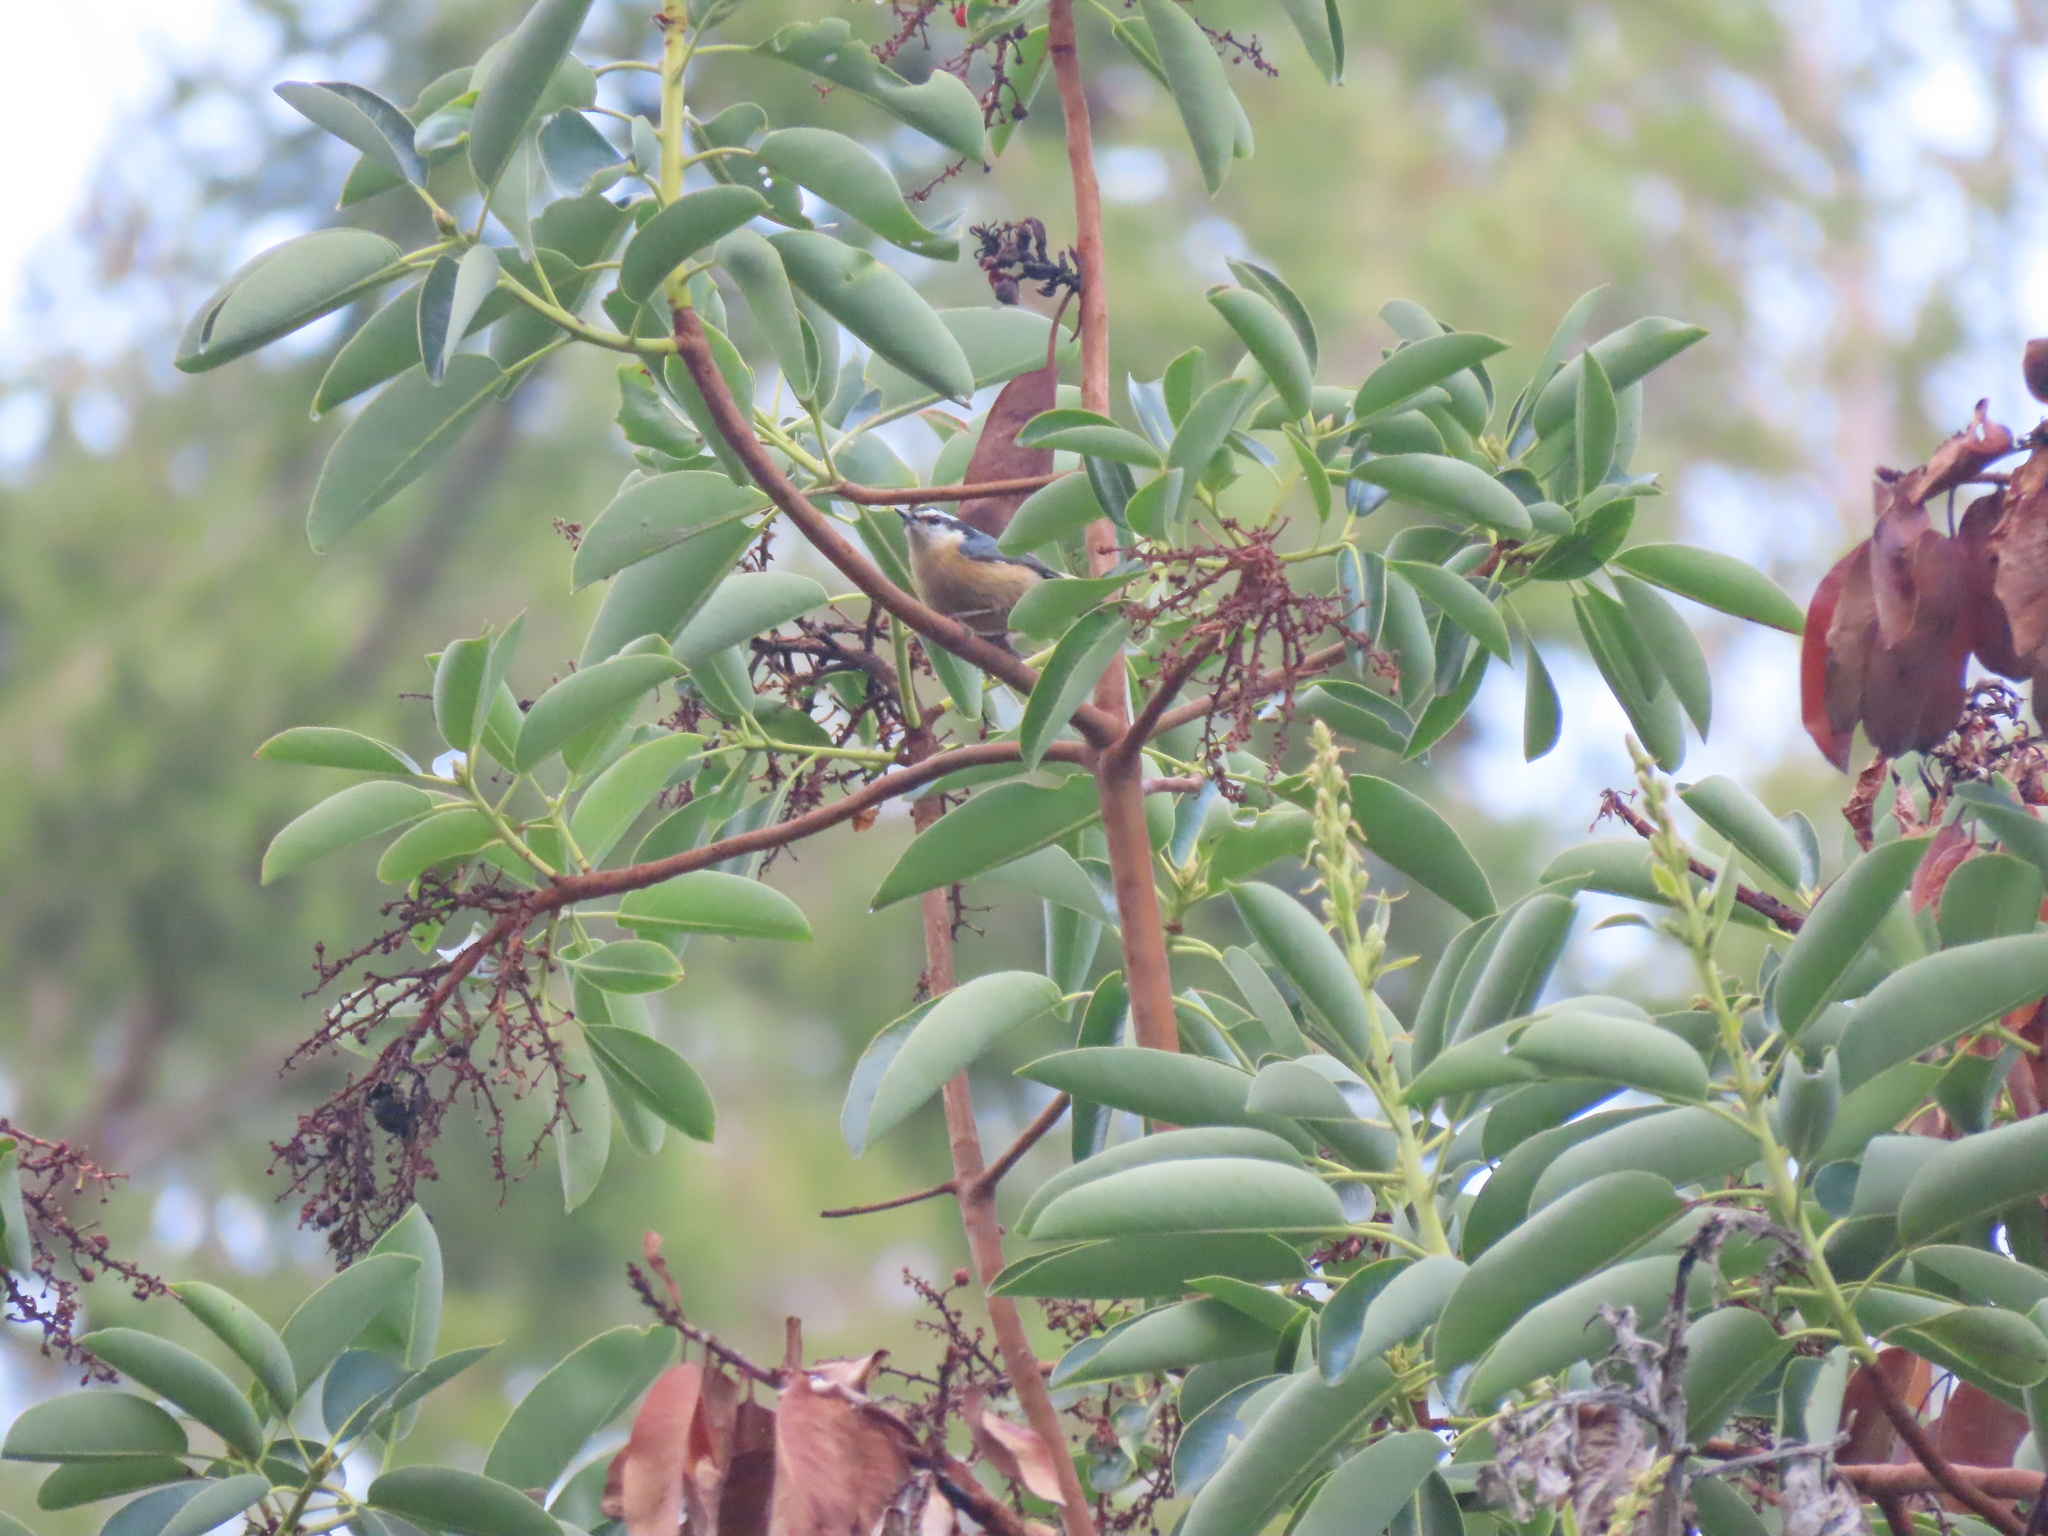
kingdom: Animalia
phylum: Chordata
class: Aves
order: Passeriformes
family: Sittidae
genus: Sitta
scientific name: Sitta canadensis
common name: Red-breasted nuthatch
